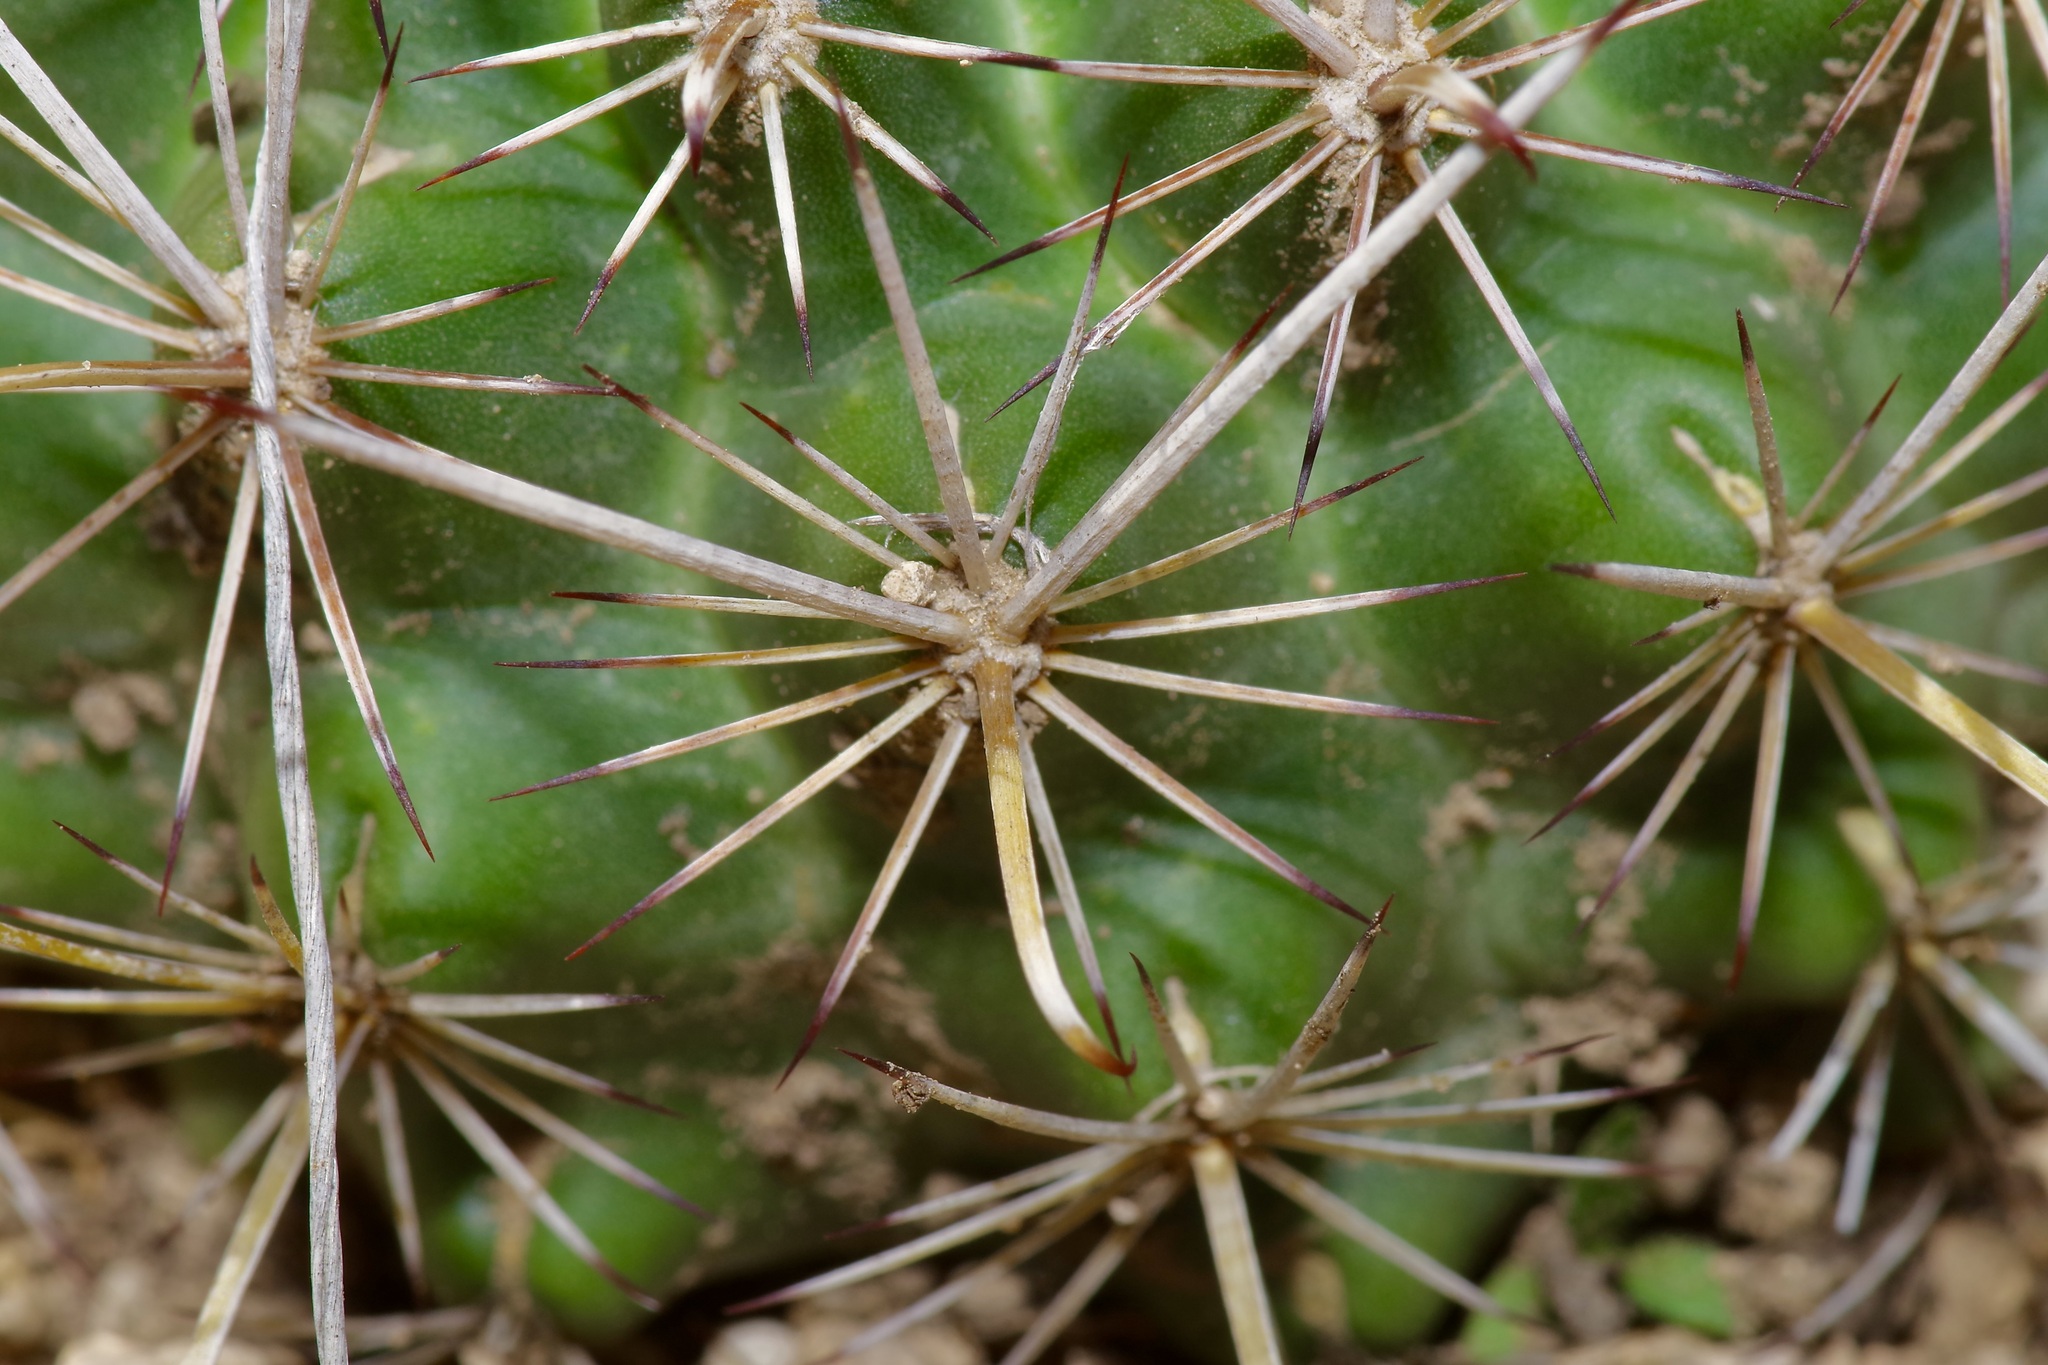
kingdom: Plantae
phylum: Tracheophyta
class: Magnoliopsida
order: Caryophyllales
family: Cactaceae
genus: Sclerocactus
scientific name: Sclerocactus brevihamatus
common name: Engelmann's fishhook cactus
